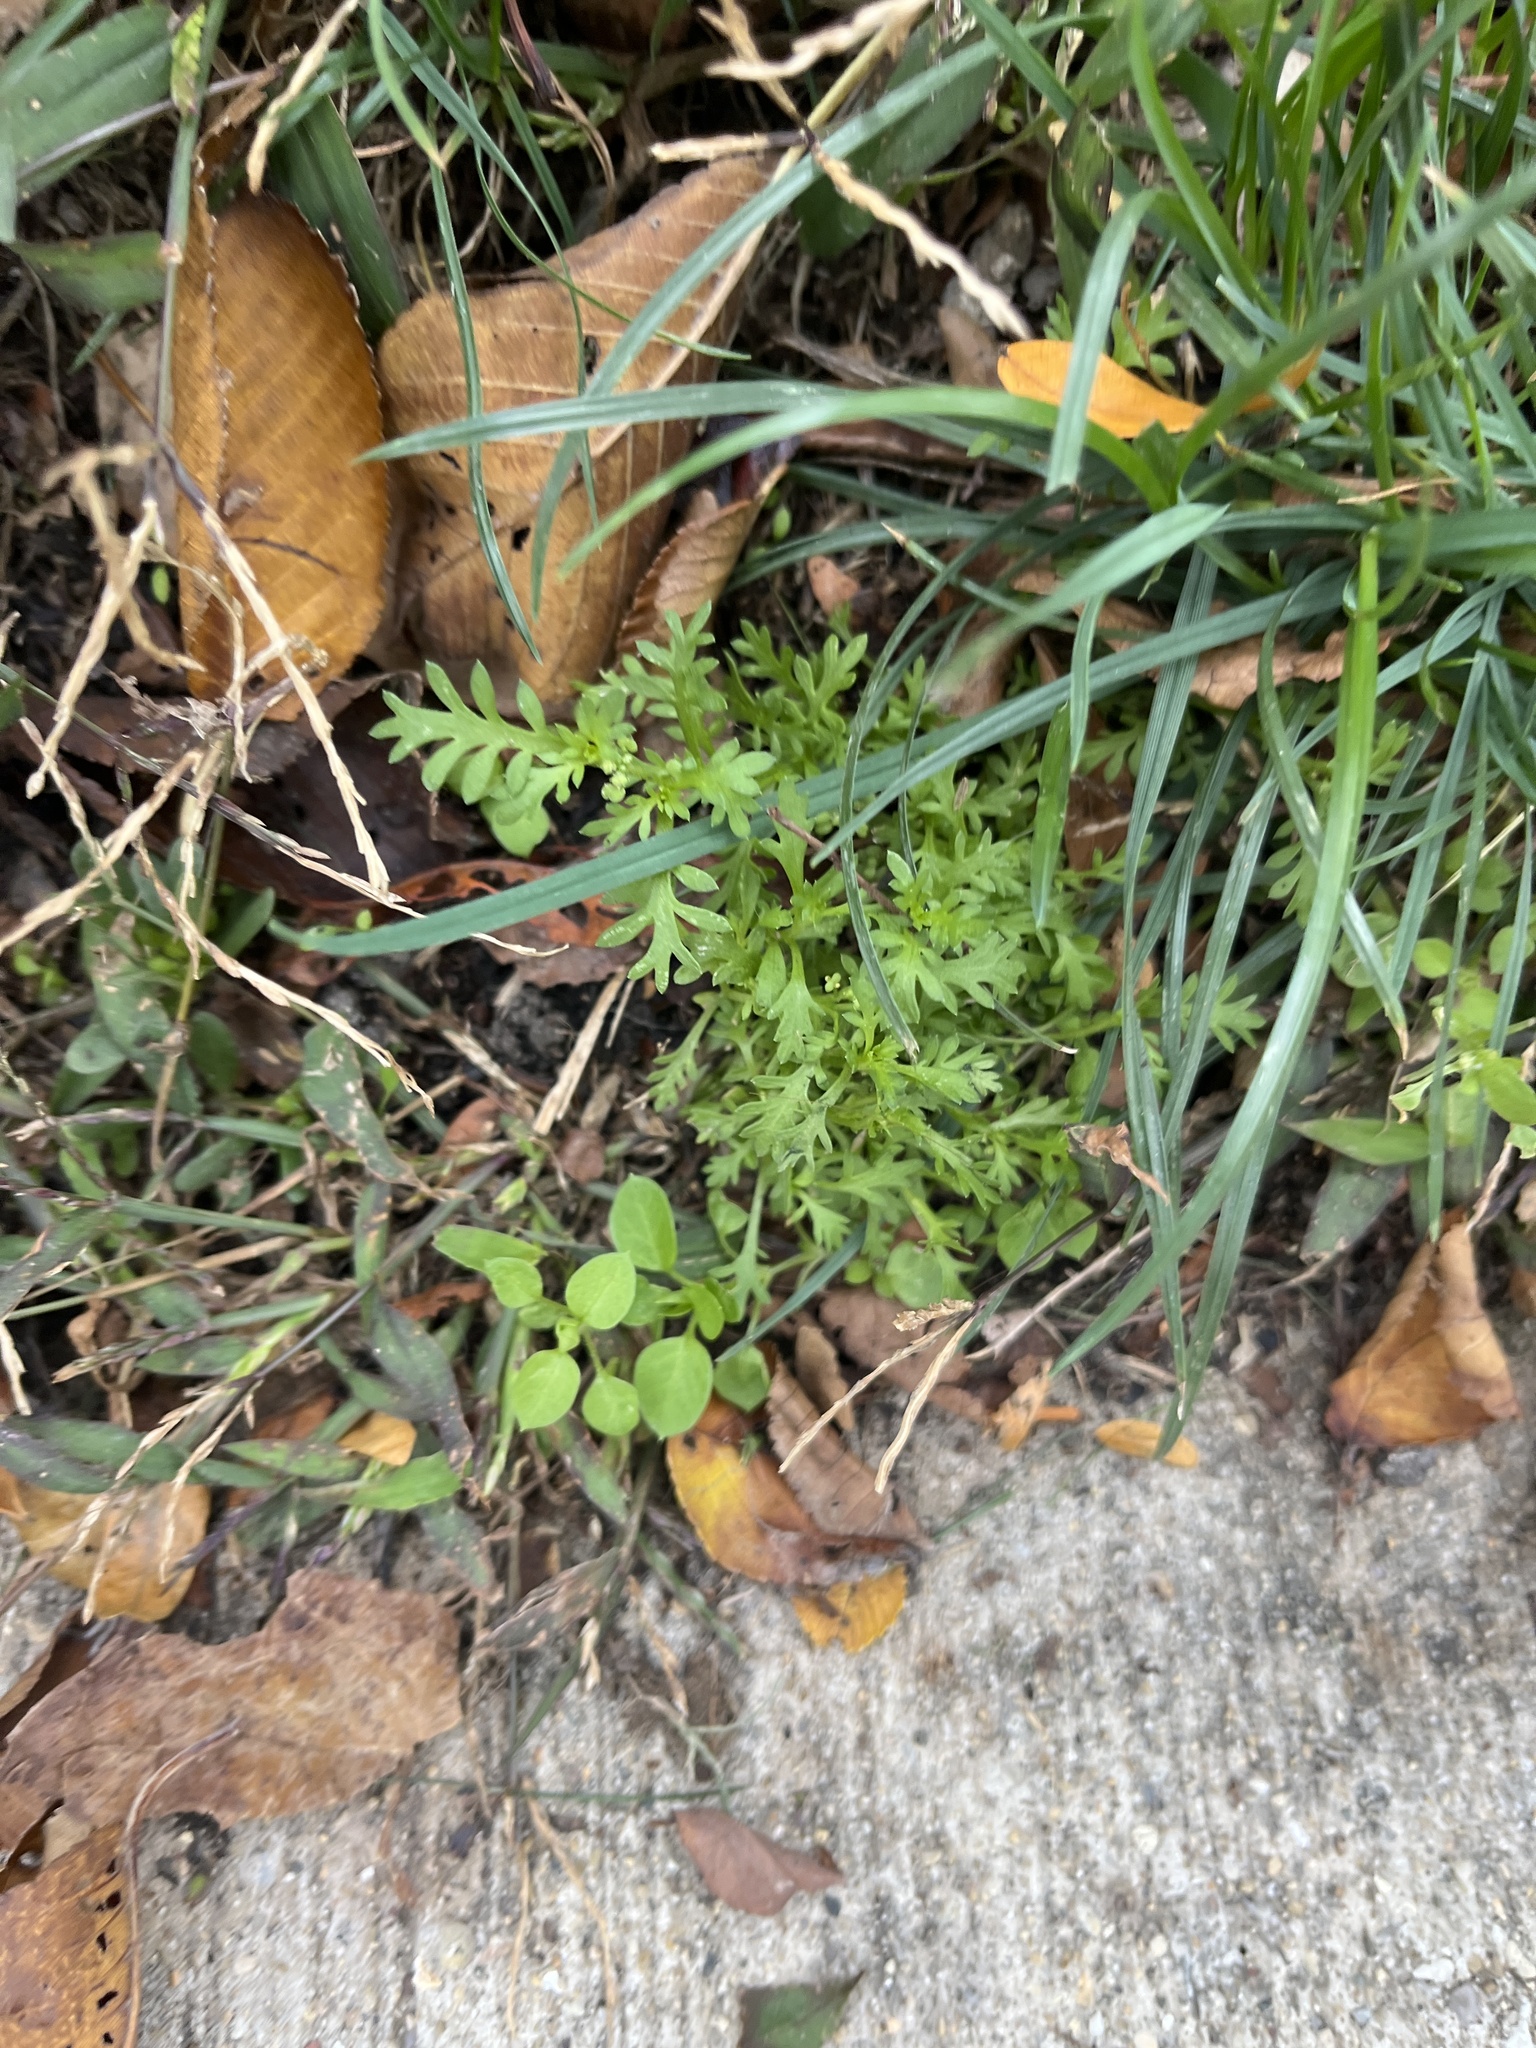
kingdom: Plantae
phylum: Tracheophyta
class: Magnoliopsida
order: Brassicales
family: Brassicaceae
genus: Lepidium
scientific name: Lepidium didymum
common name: Lesser swinecress
